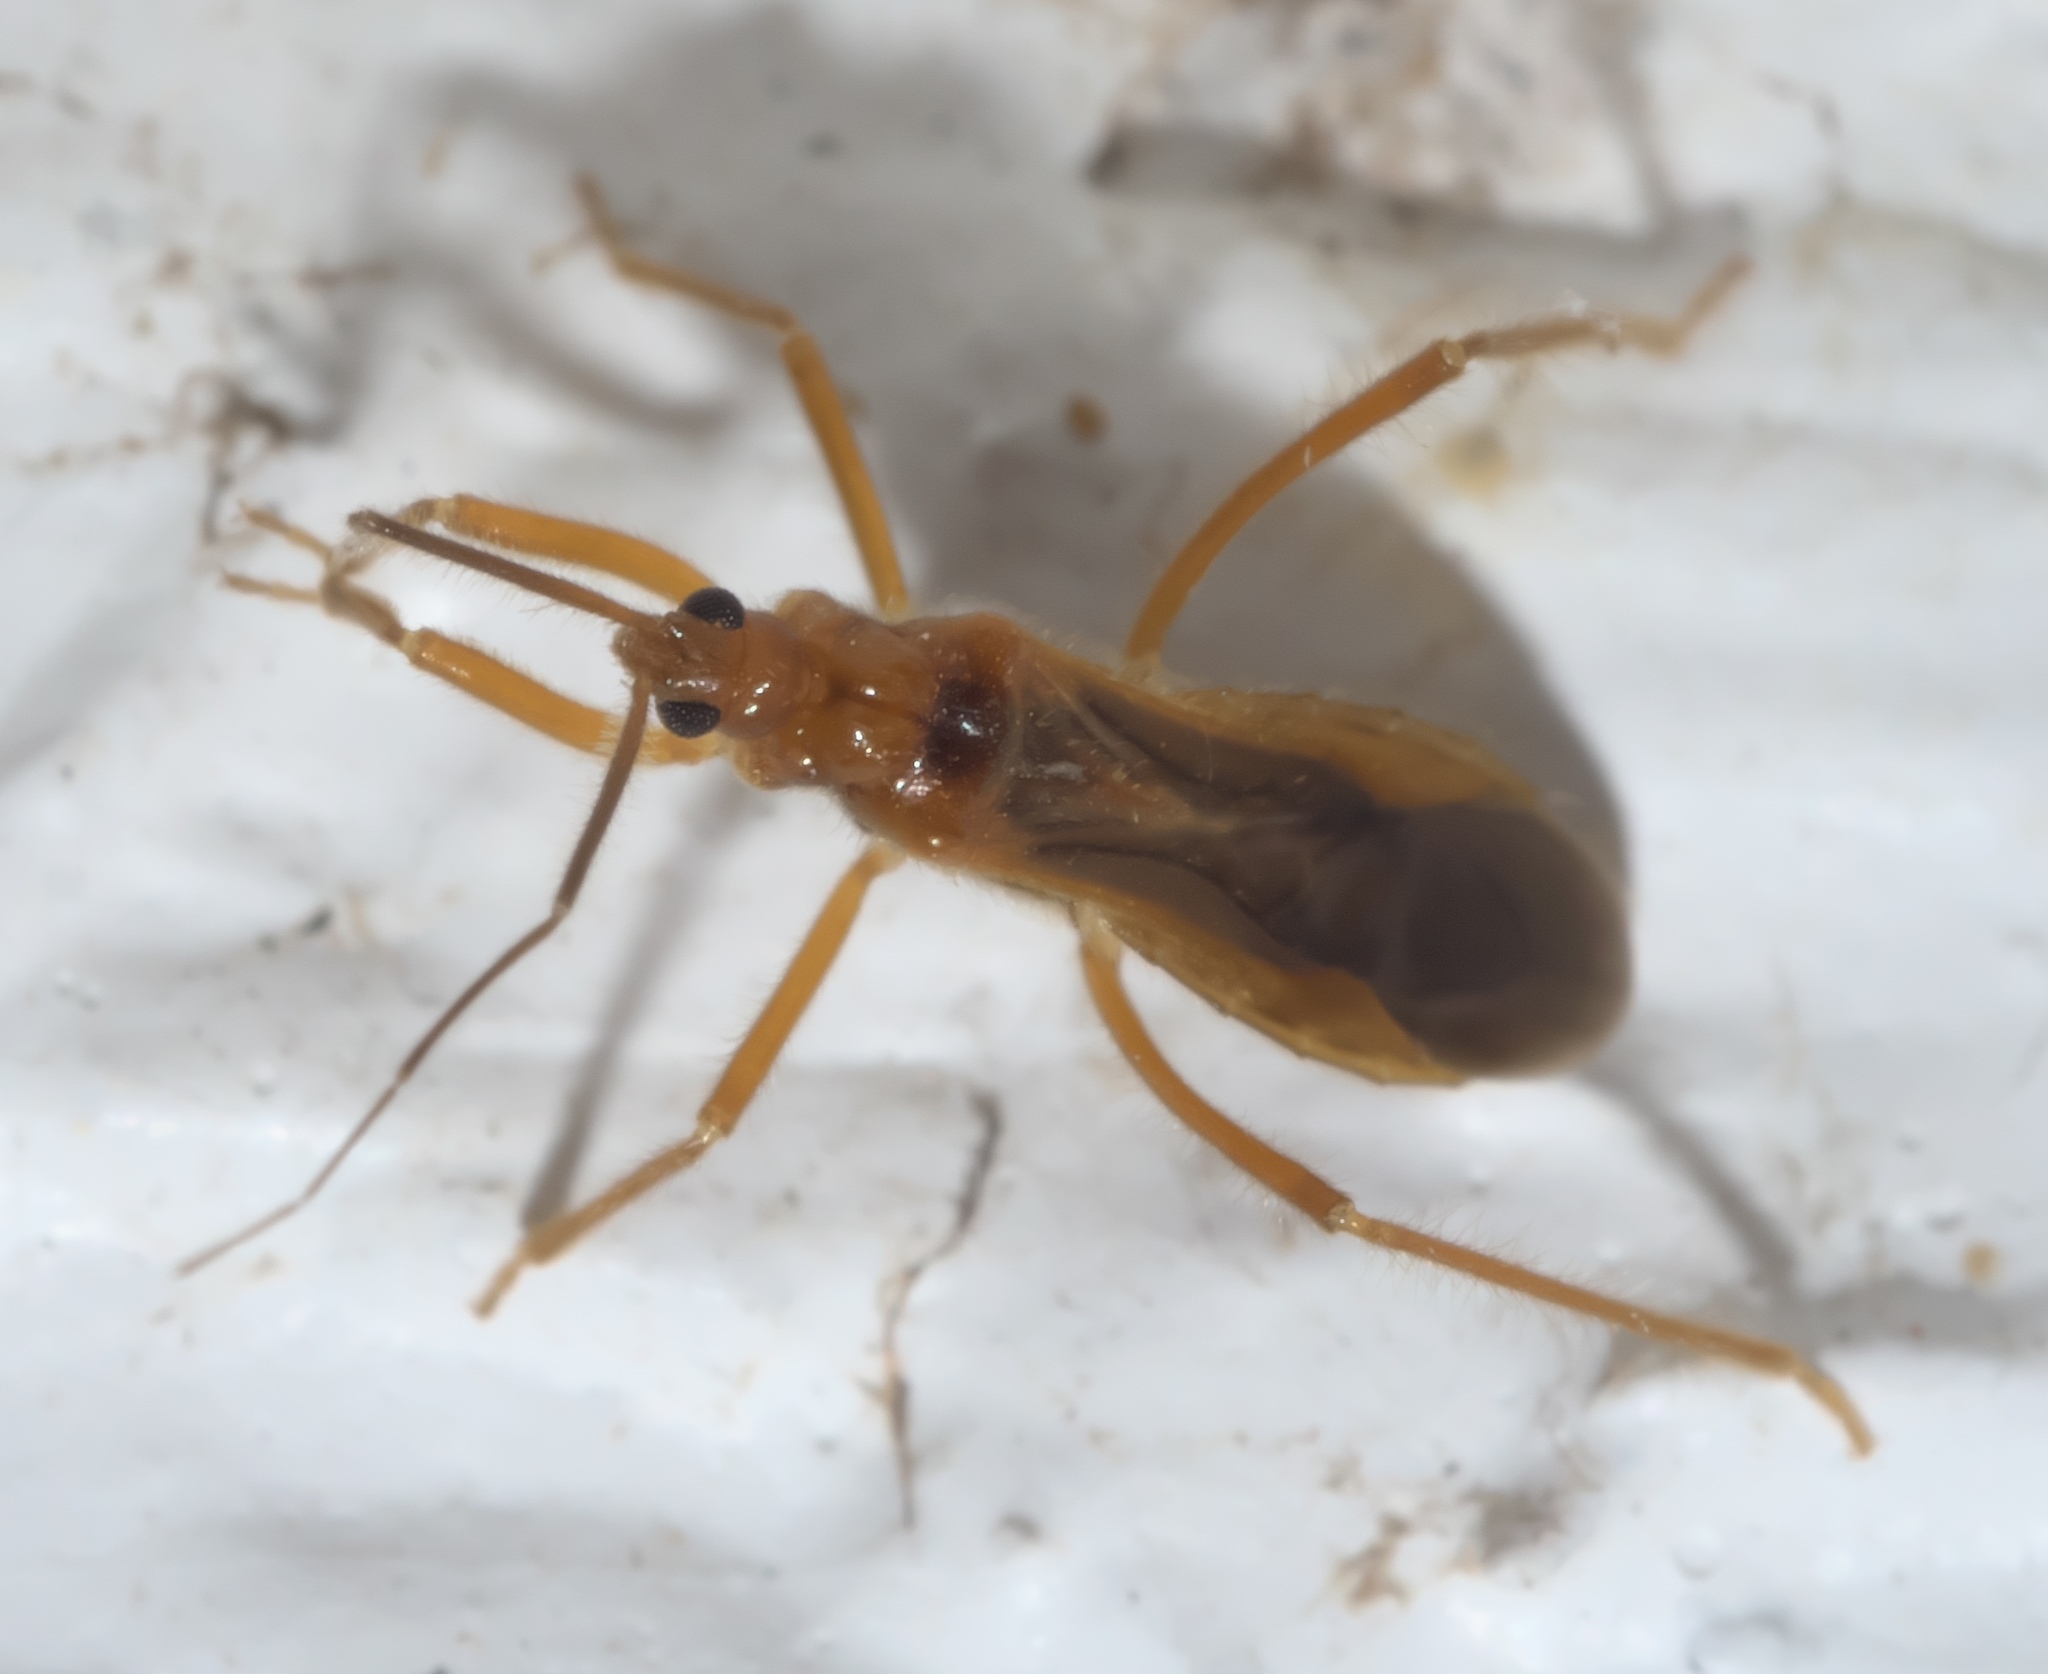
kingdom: Animalia
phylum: Arthropoda
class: Insecta
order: Hemiptera
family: Reduviidae
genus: Oncerotrachelus
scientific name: Oncerotrachelus acuminatus
